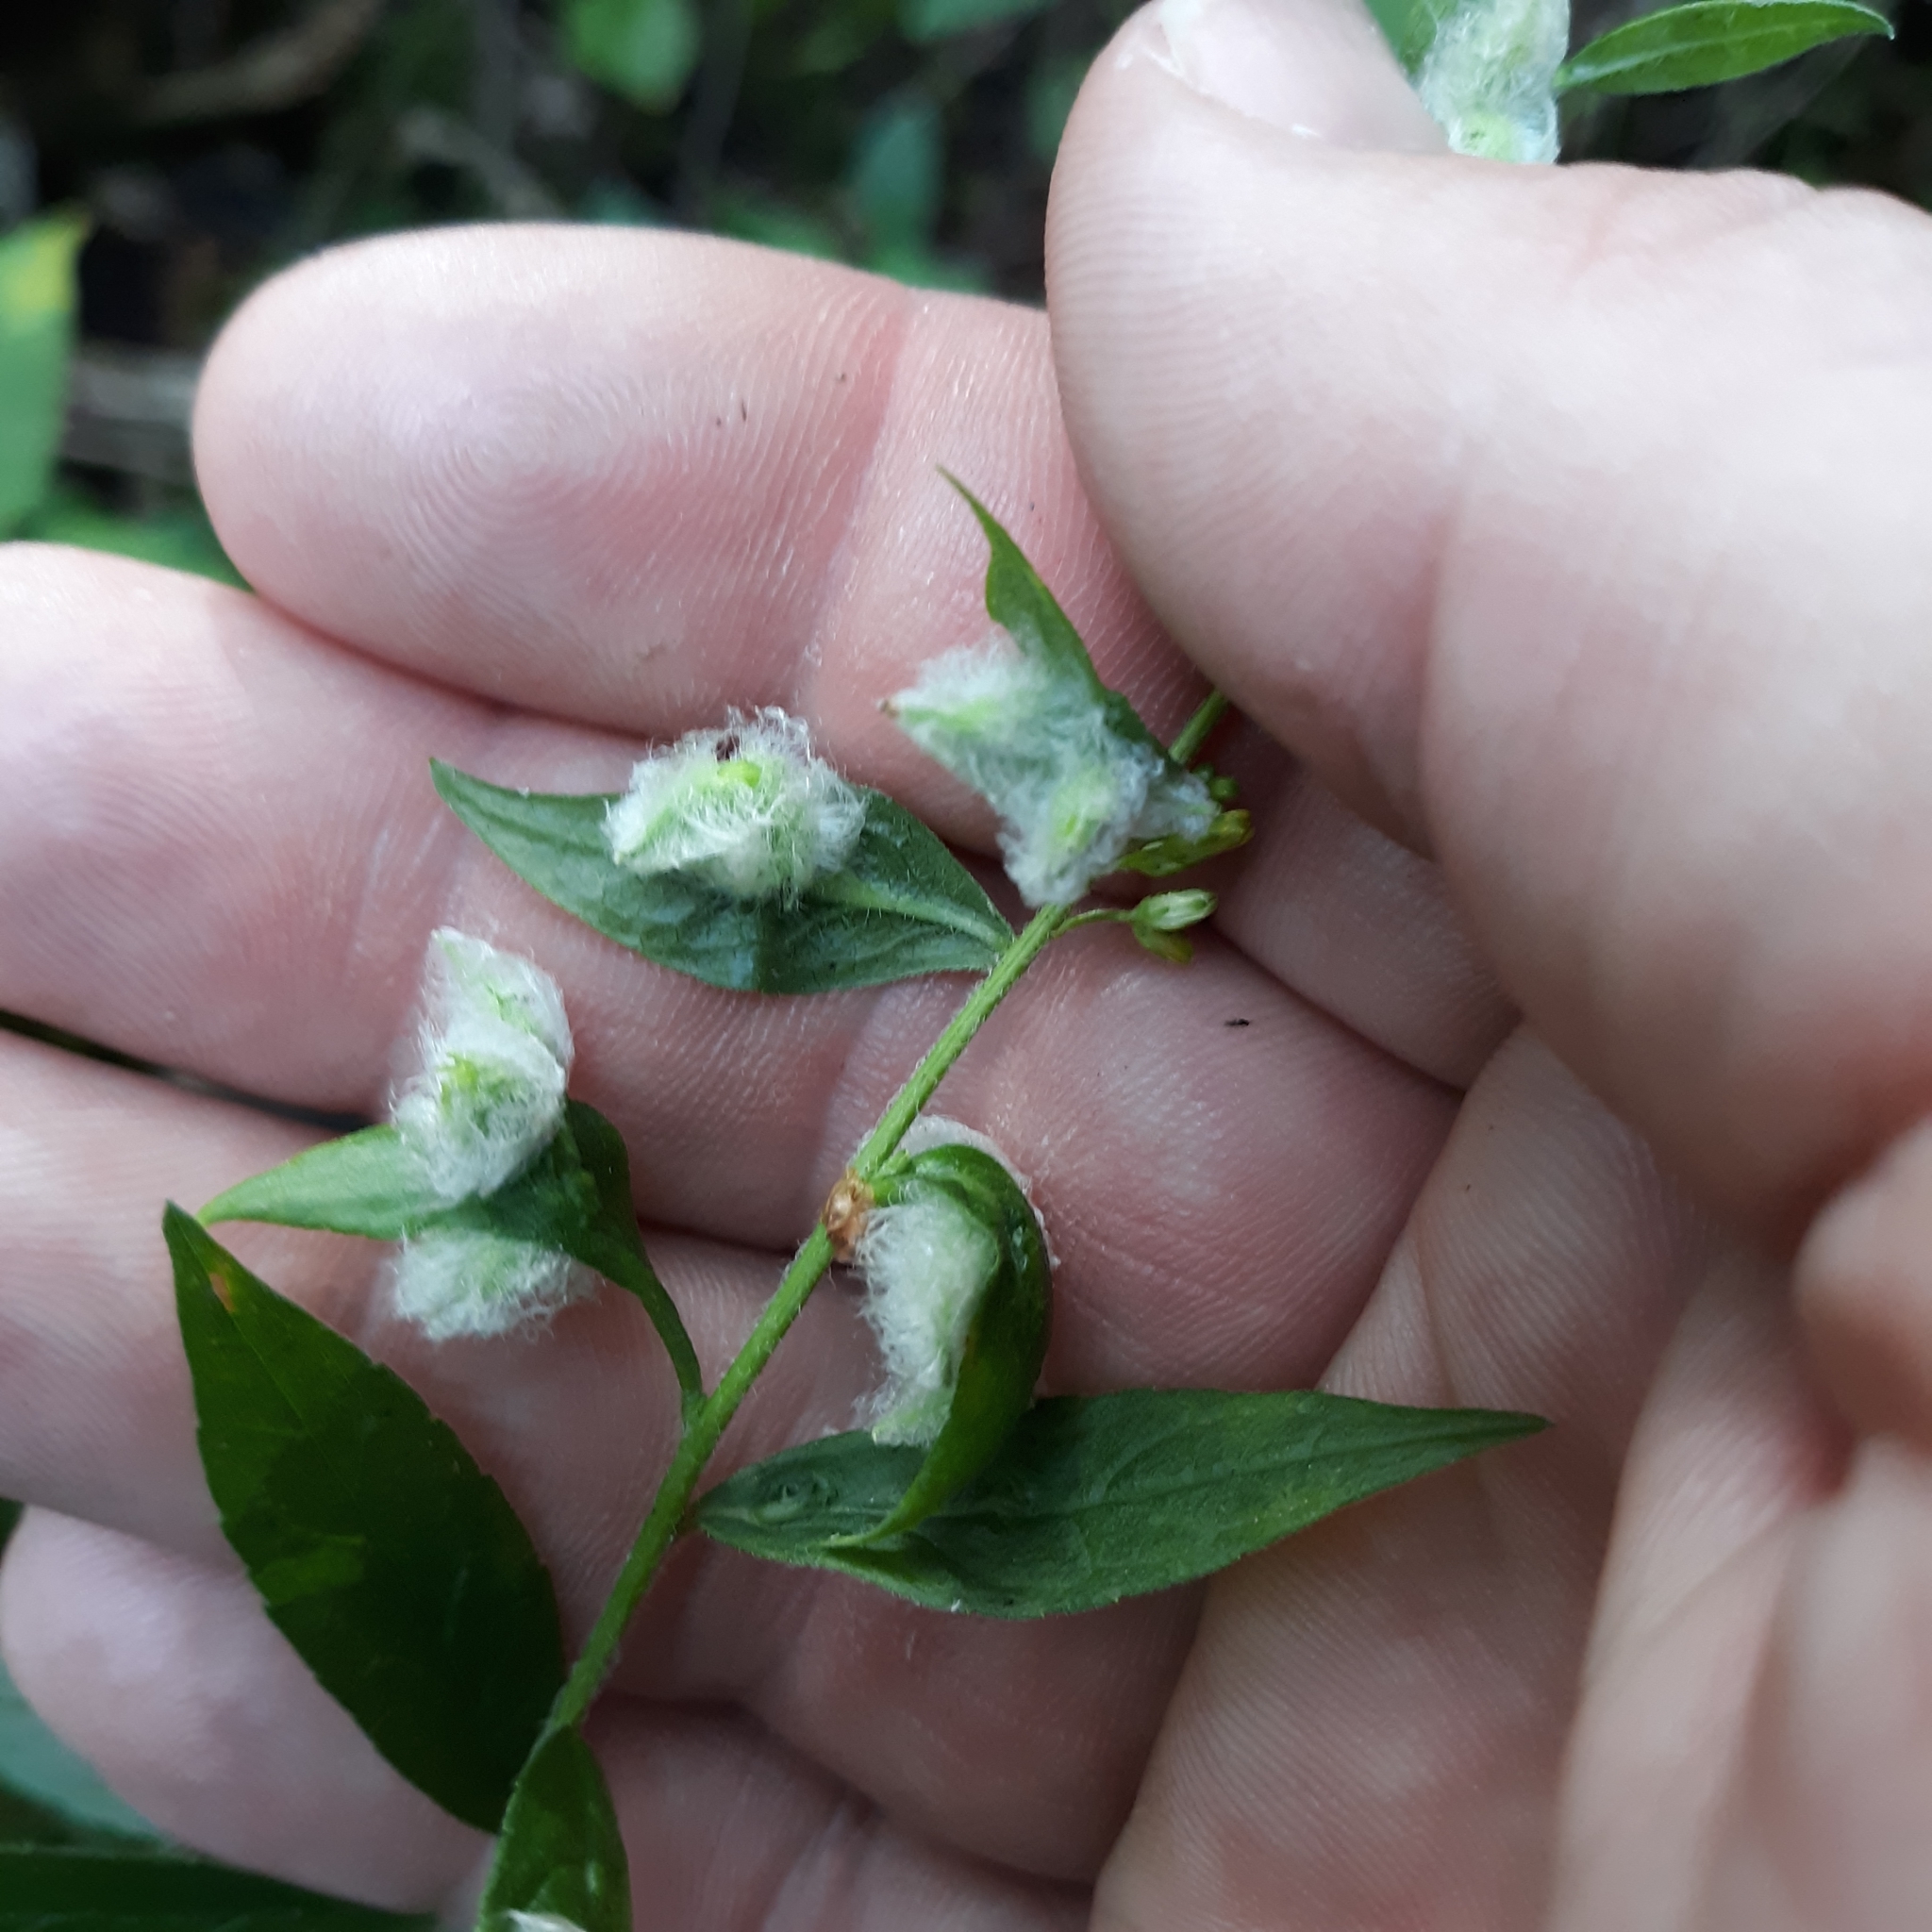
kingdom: Animalia
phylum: Arthropoda
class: Insecta
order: Diptera
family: Cecidomyiidae
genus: Rhopalomyia
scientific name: Rhopalomyia clarkei
